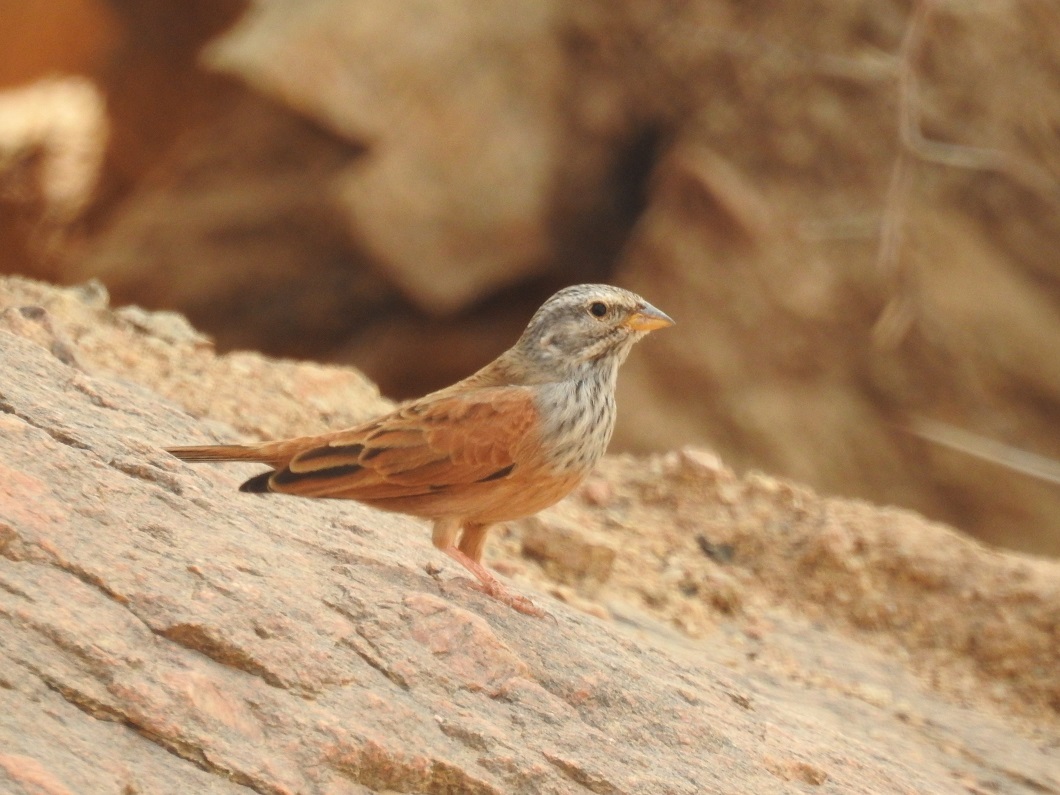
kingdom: Animalia
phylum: Chordata
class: Aves
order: Passeriformes
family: Emberizidae
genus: Emberiza
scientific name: Emberiza sahari
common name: House bunting
